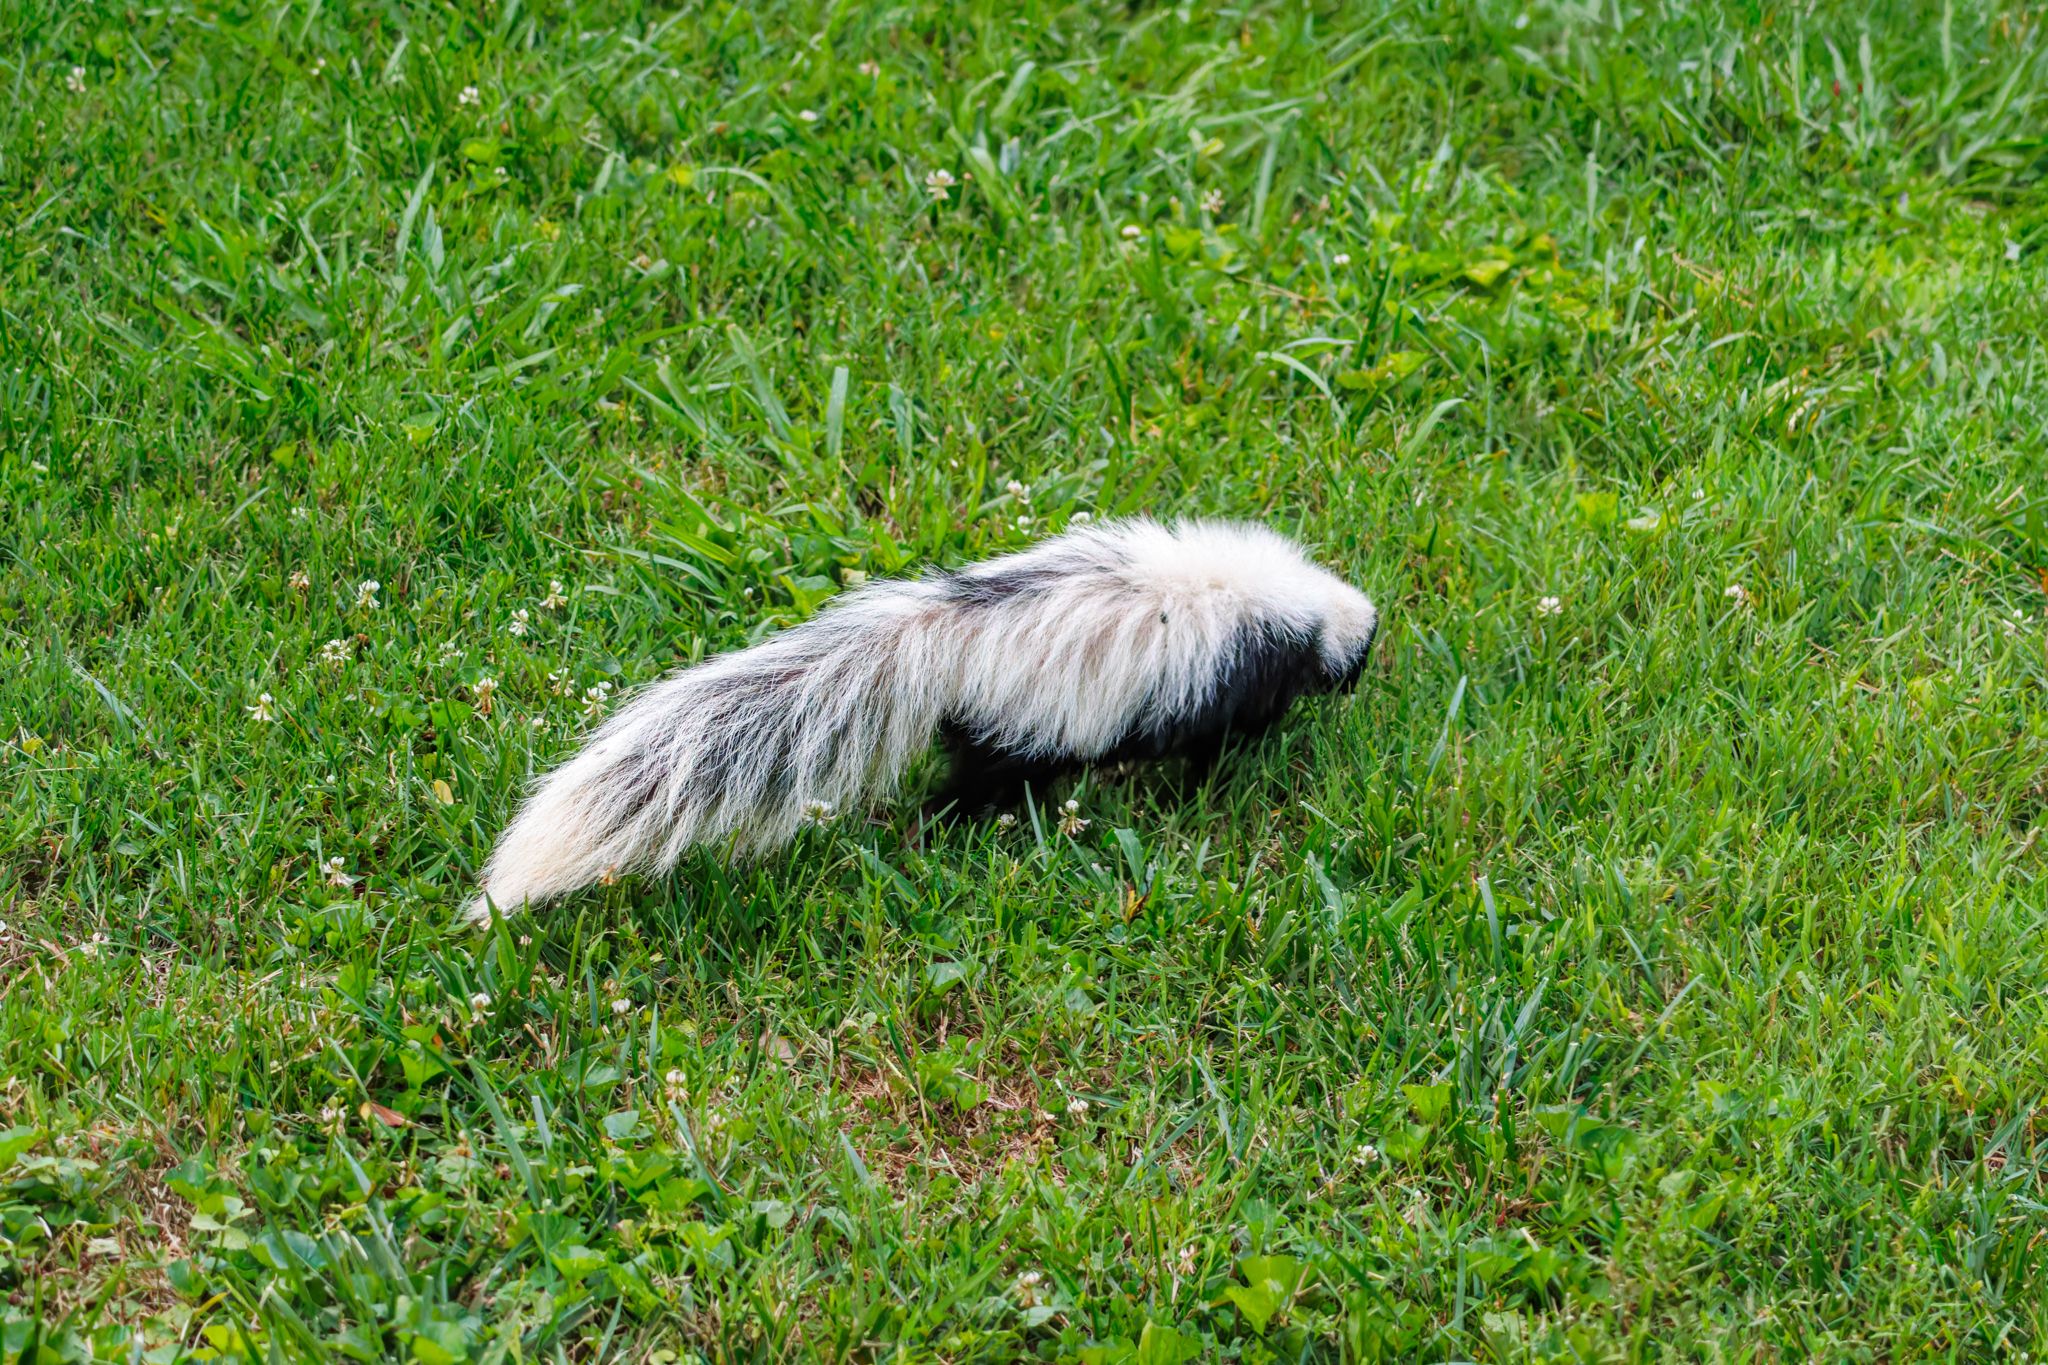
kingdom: Animalia
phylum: Chordata
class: Mammalia
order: Carnivora
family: Mephitidae
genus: Mephitis
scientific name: Mephitis mephitis
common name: Striped skunk
